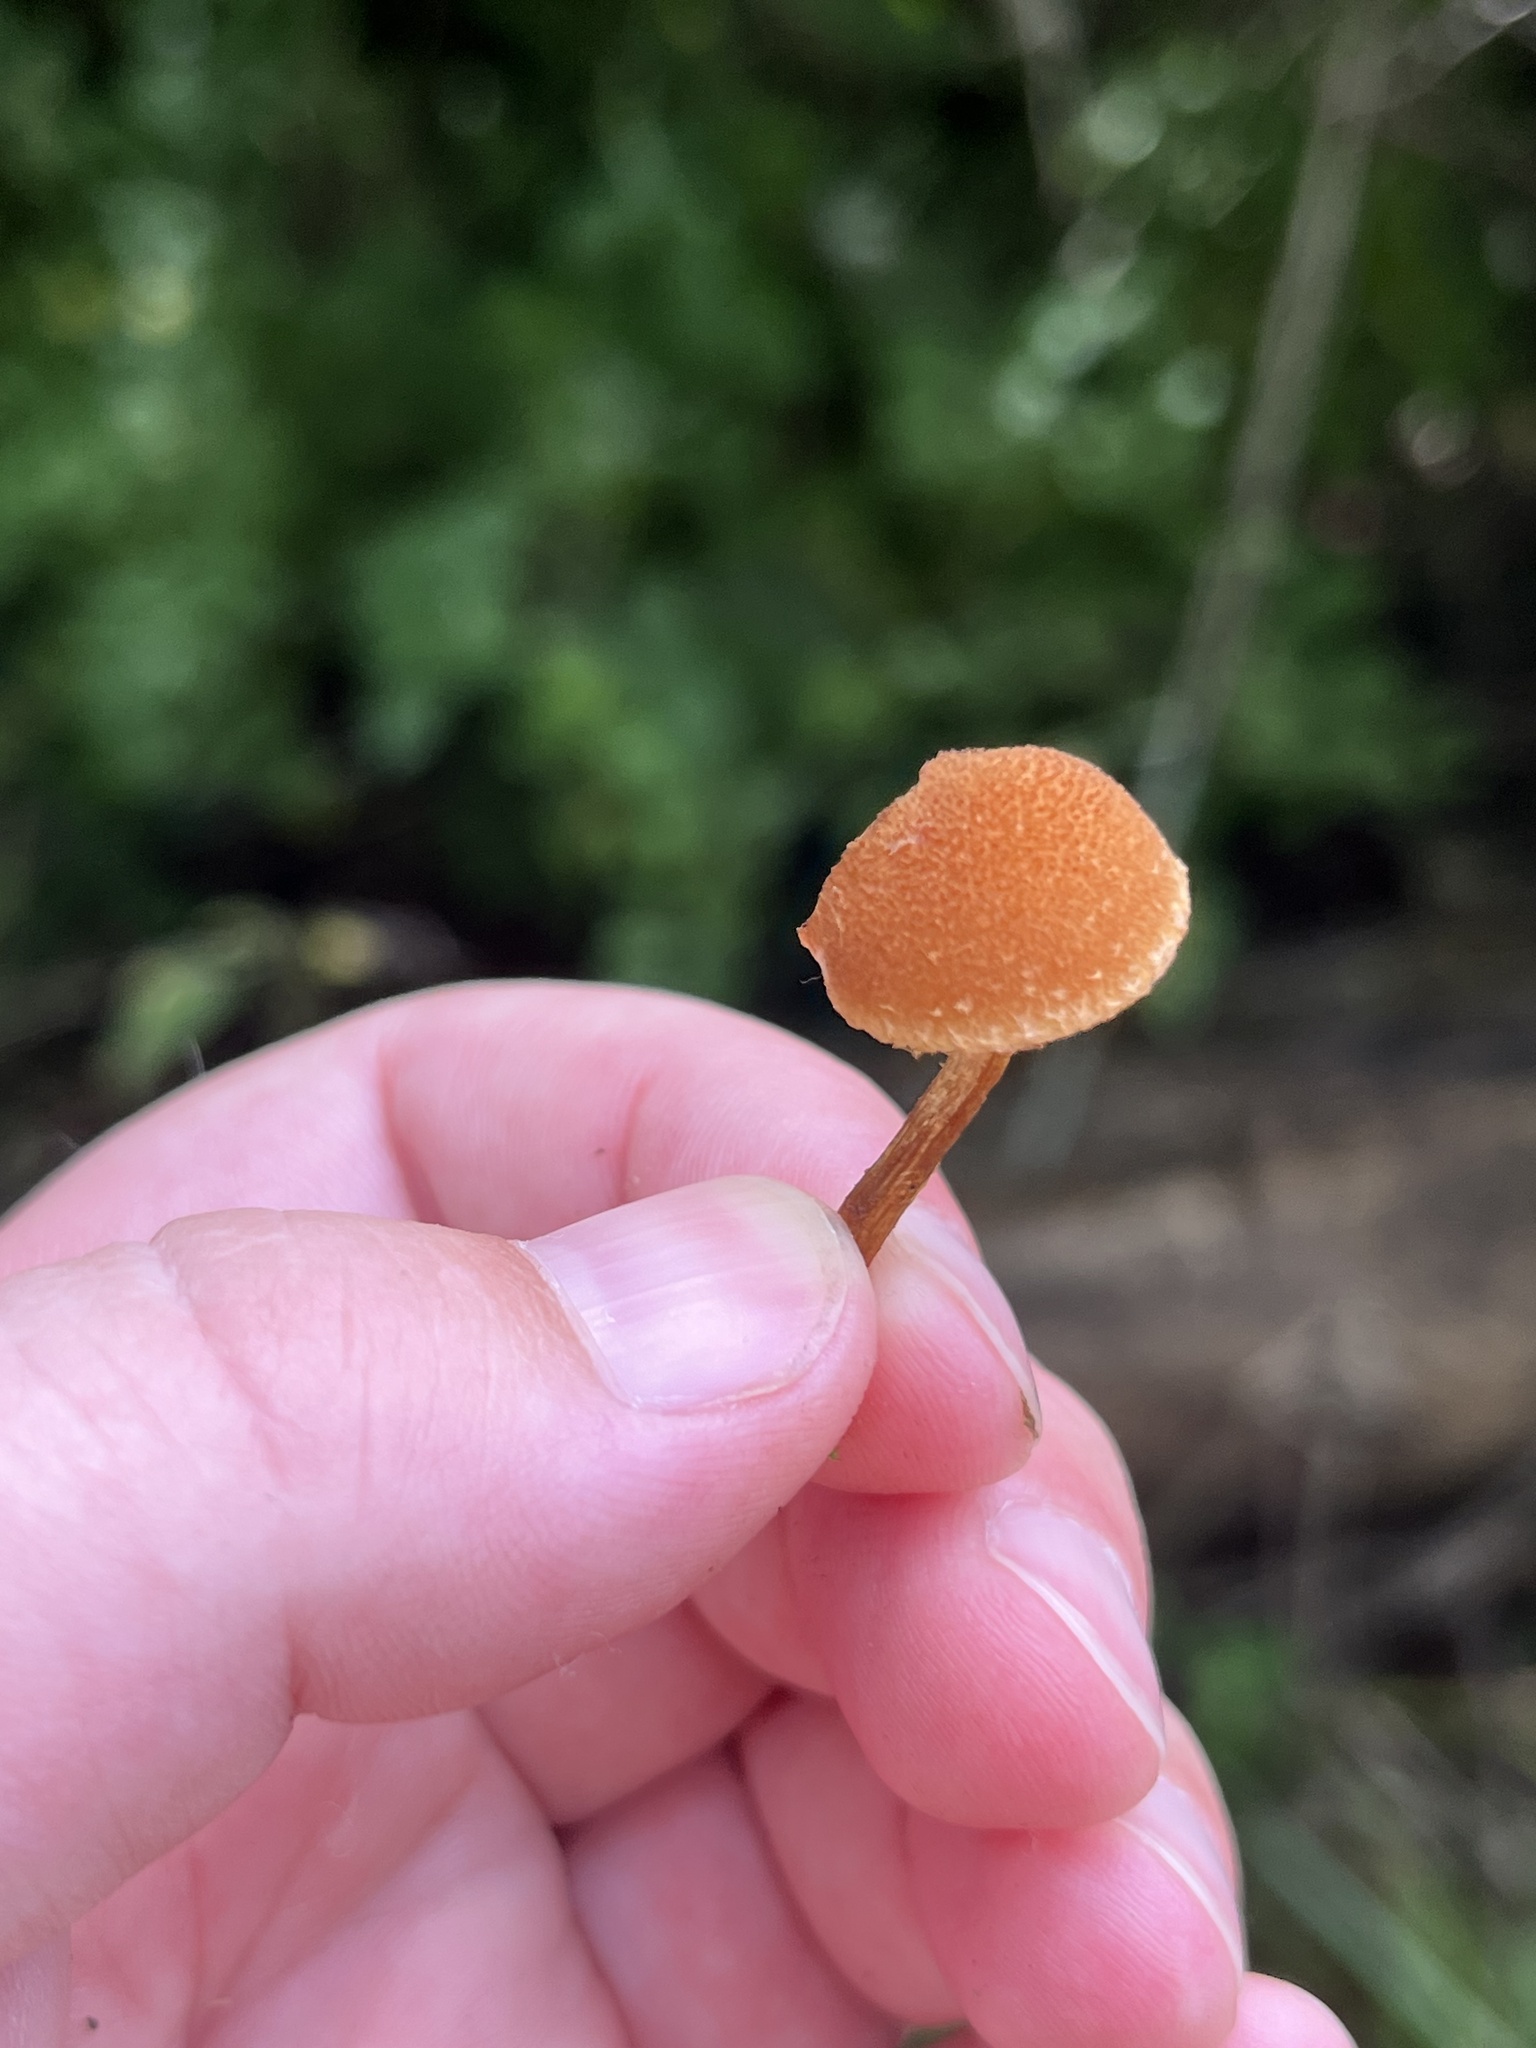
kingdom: Fungi
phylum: Basidiomycota
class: Agaricomycetes
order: Agaricales
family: Tubariaceae
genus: Flammulaster
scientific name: Flammulaster erinaceellus
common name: Powder-scale pholiota
